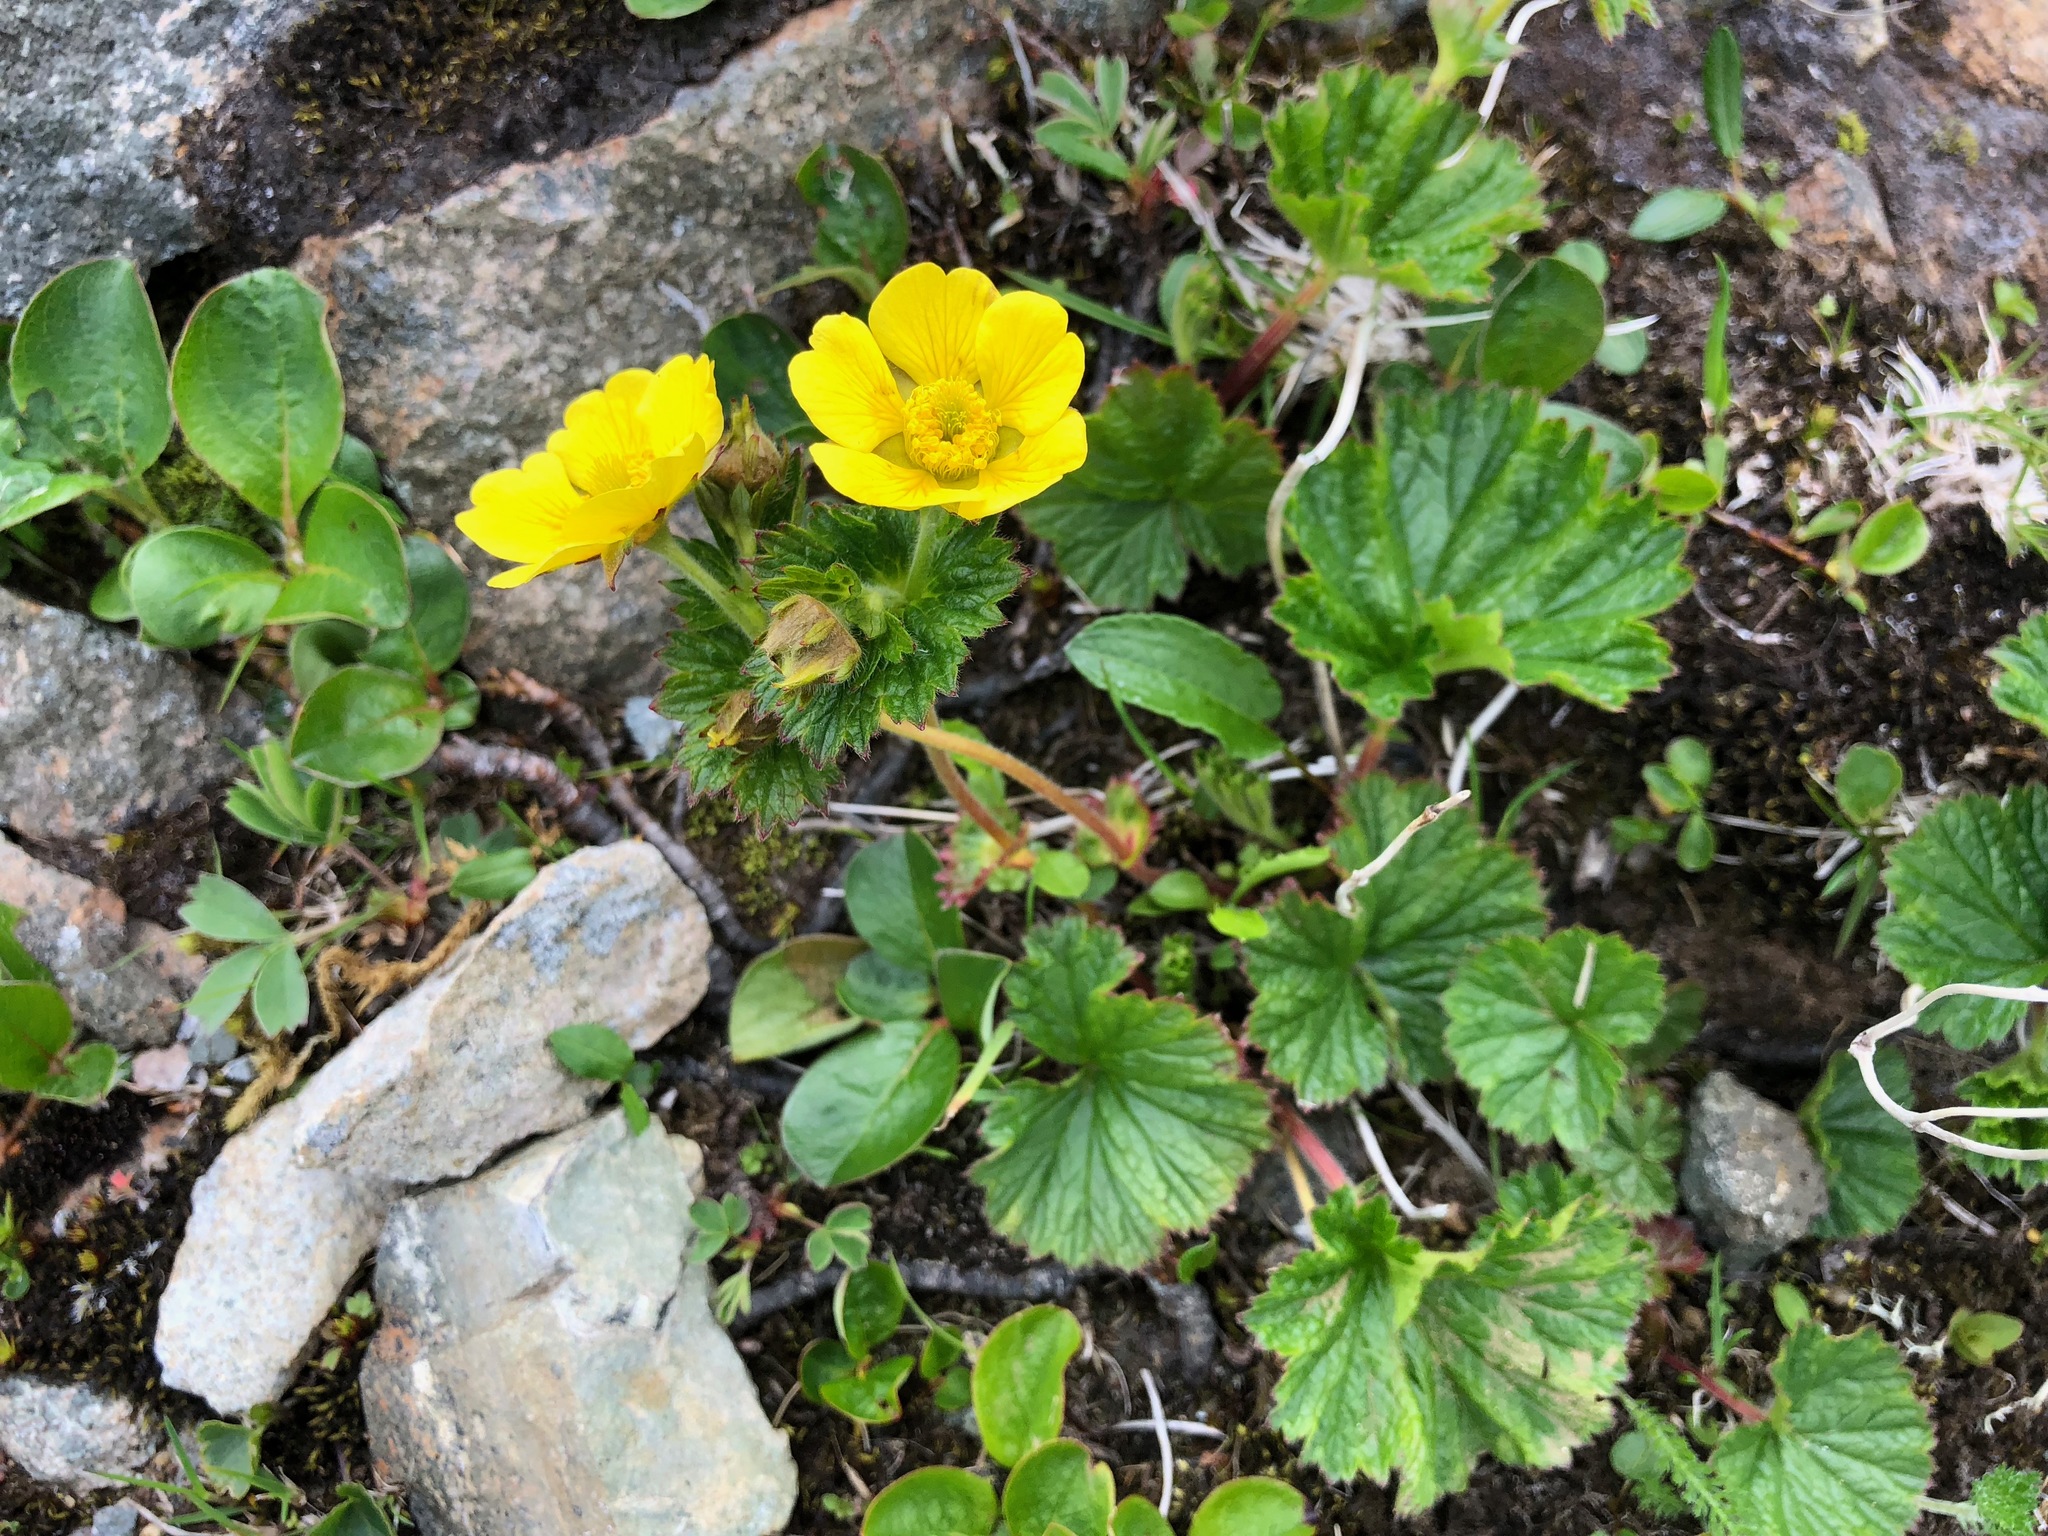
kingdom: Plantae
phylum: Tracheophyta
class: Magnoliopsida
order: Rosales
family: Rosaceae
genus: Geum
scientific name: Geum calthifolium
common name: Caltha-leaved avens
